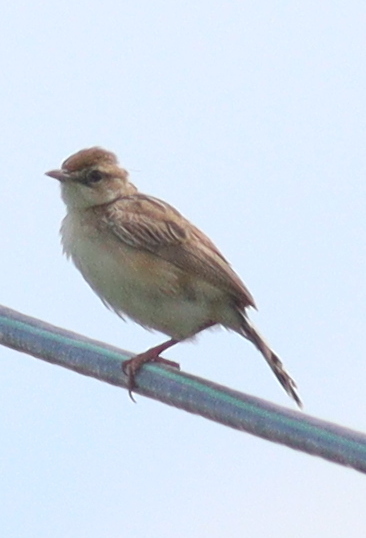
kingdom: Animalia
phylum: Chordata
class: Aves
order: Passeriformes
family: Cisticolidae
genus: Cisticola
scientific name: Cisticola exilis
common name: Golden-headed cisticola
